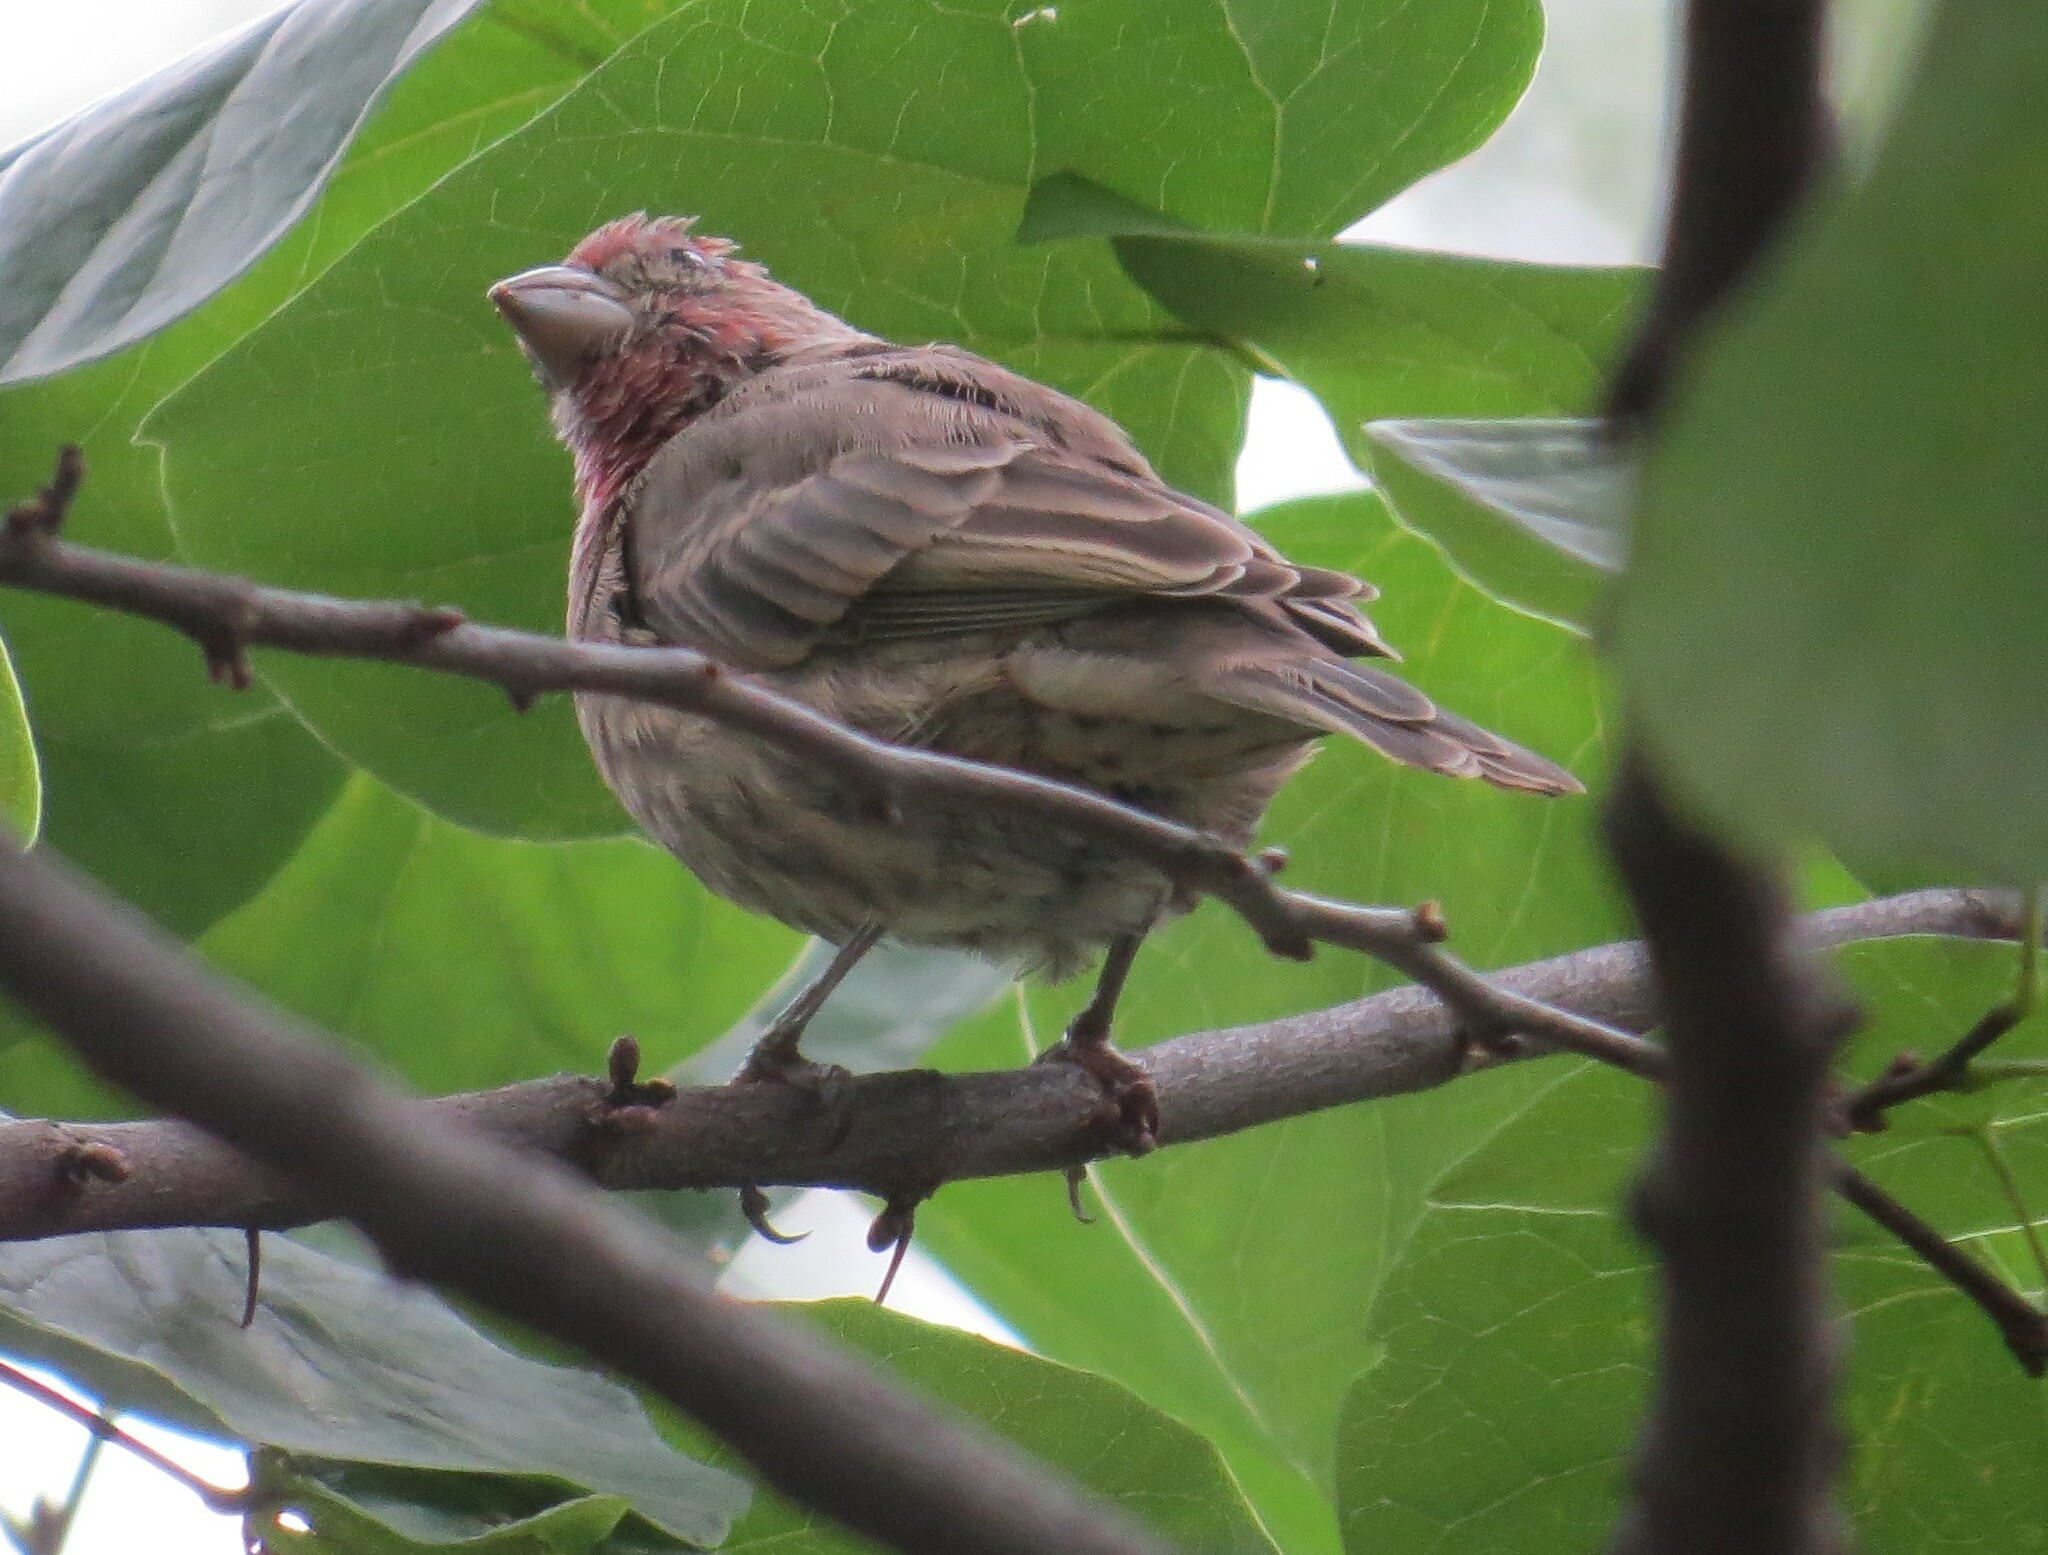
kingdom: Animalia
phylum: Chordata
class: Aves
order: Passeriformes
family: Fringillidae
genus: Haemorhous
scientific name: Haemorhous mexicanus
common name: House finch
